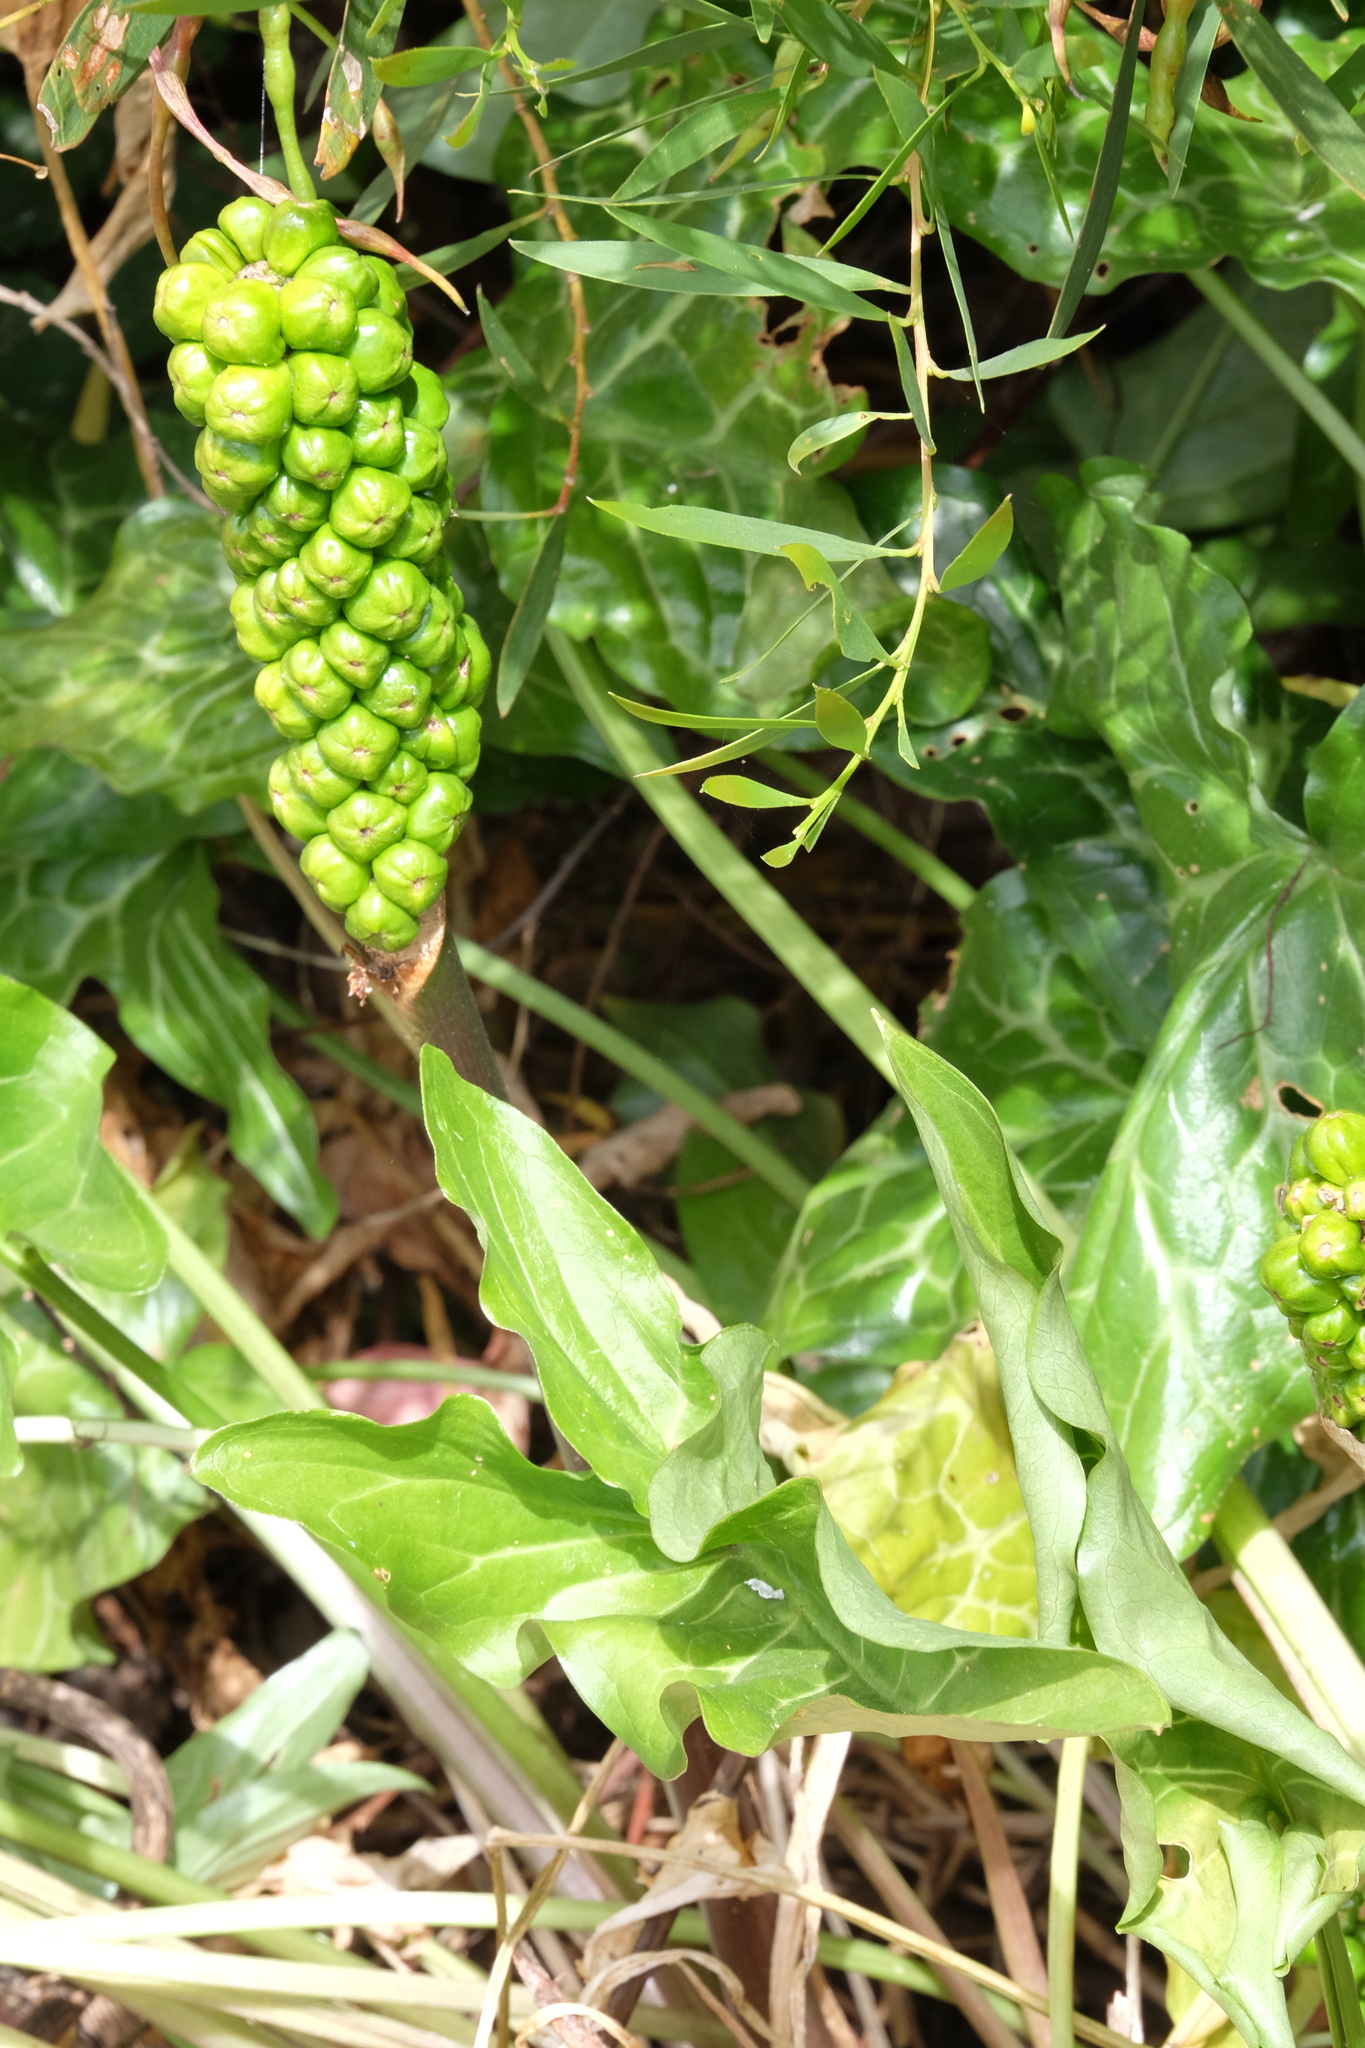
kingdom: Plantae
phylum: Tracheophyta
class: Liliopsida
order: Alismatales
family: Araceae
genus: Arum
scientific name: Arum italicum
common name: Italian lords-and-ladies
